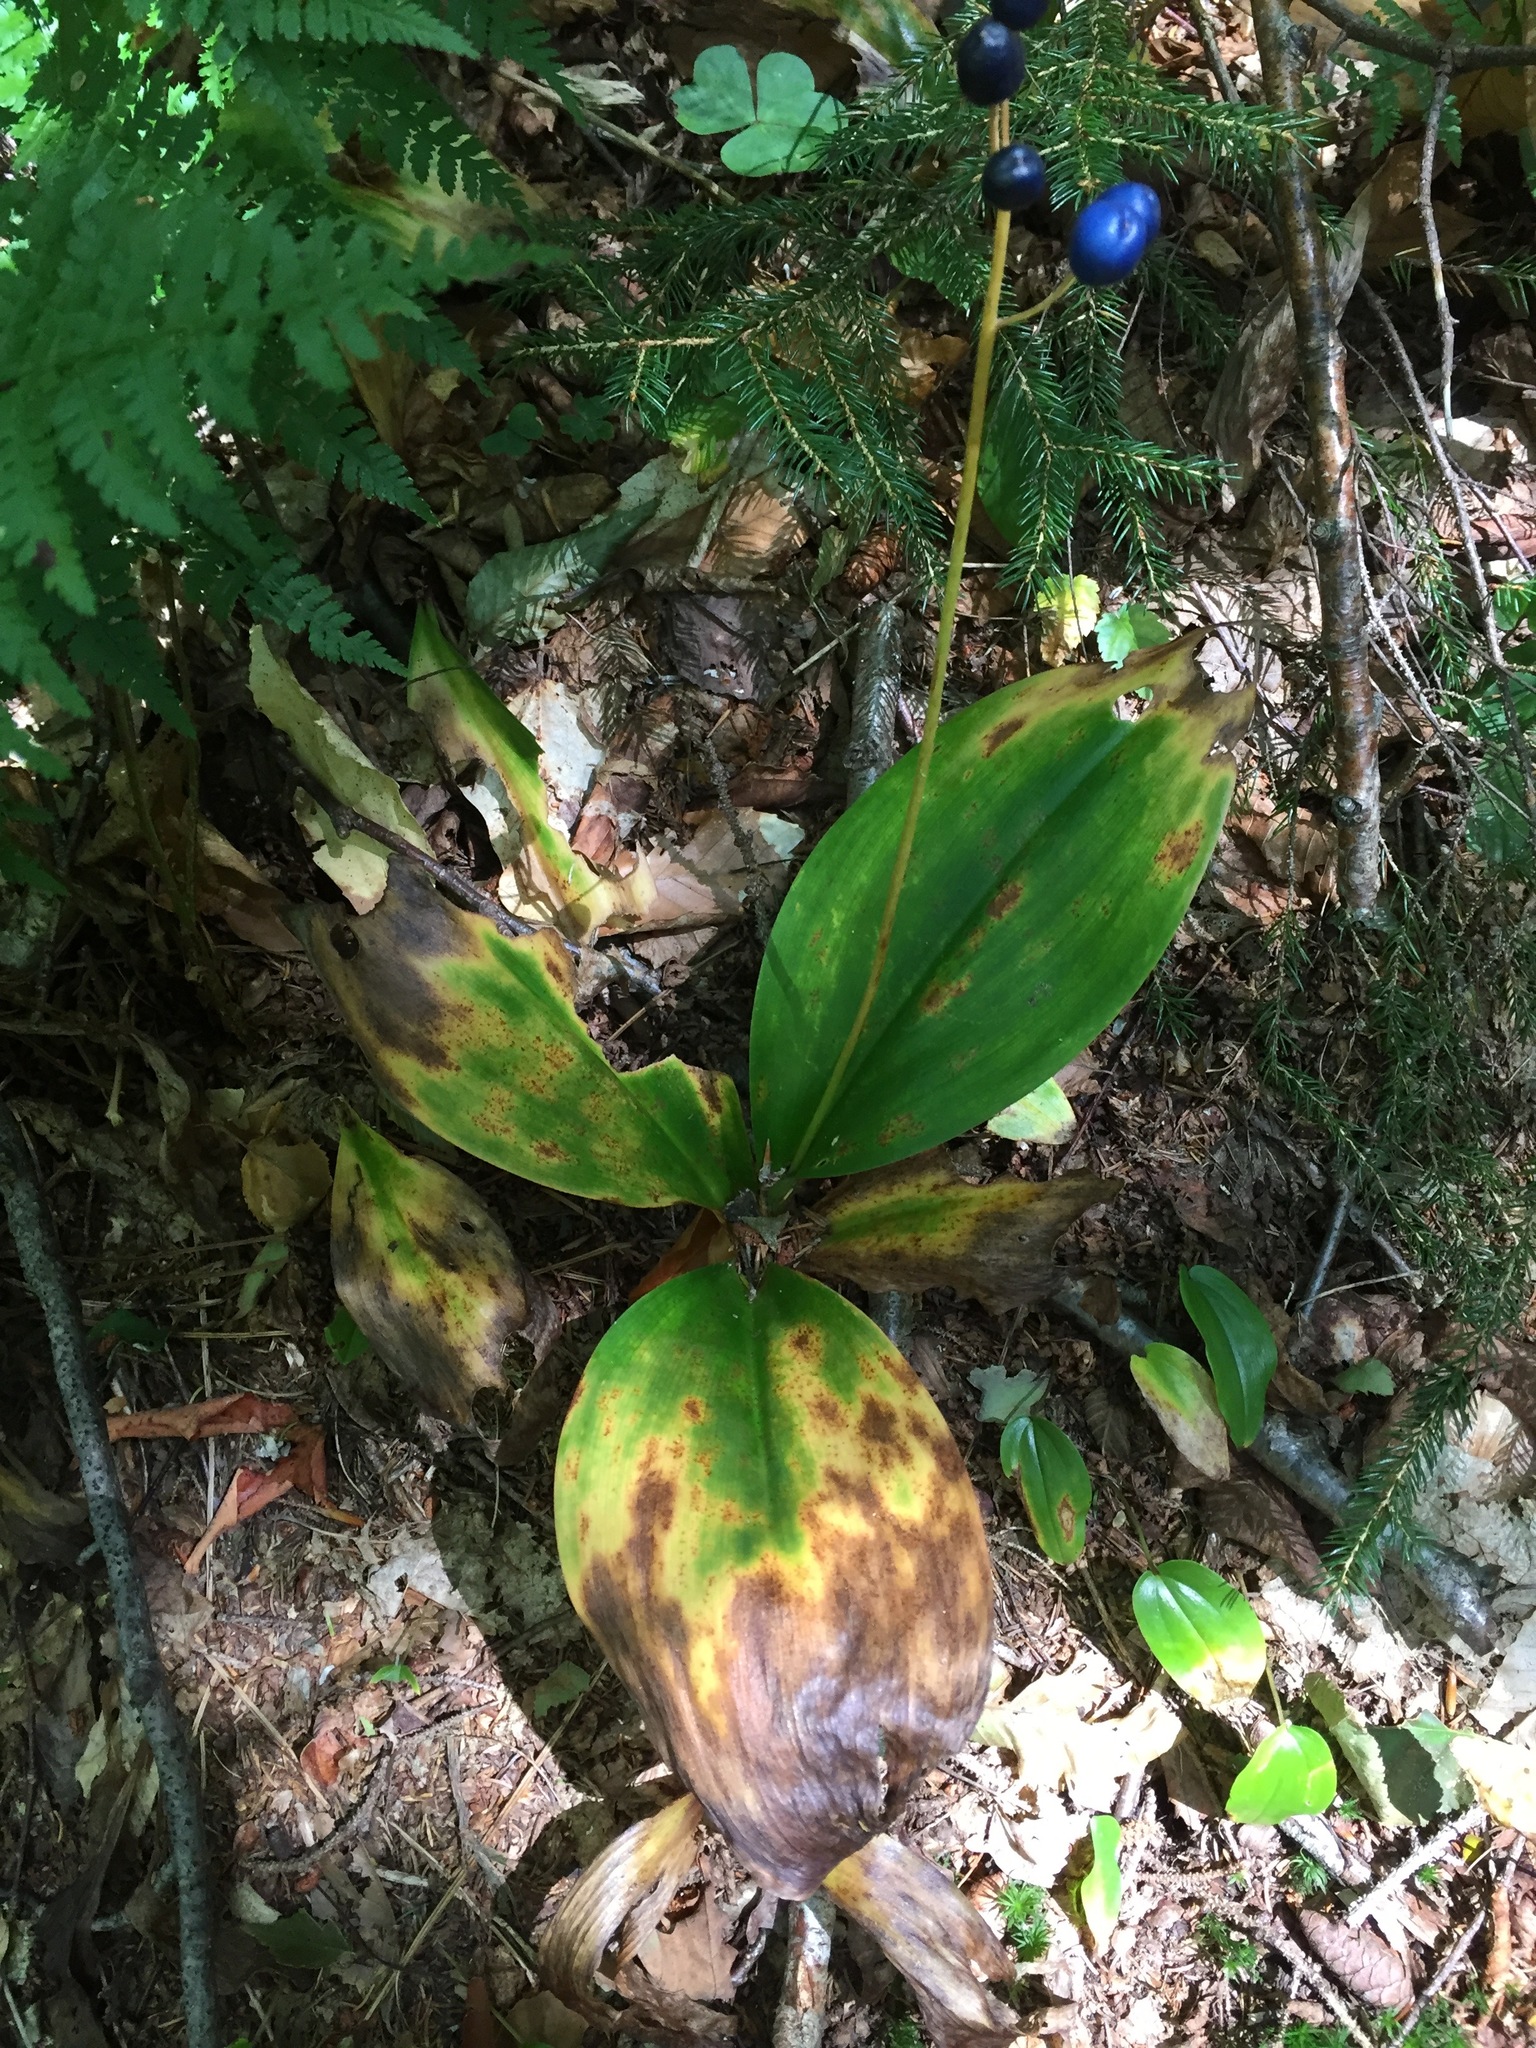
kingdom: Plantae
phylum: Tracheophyta
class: Liliopsida
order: Liliales
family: Liliaceae
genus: Clintonia
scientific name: Clintonia borealis
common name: Yellow clintonia
